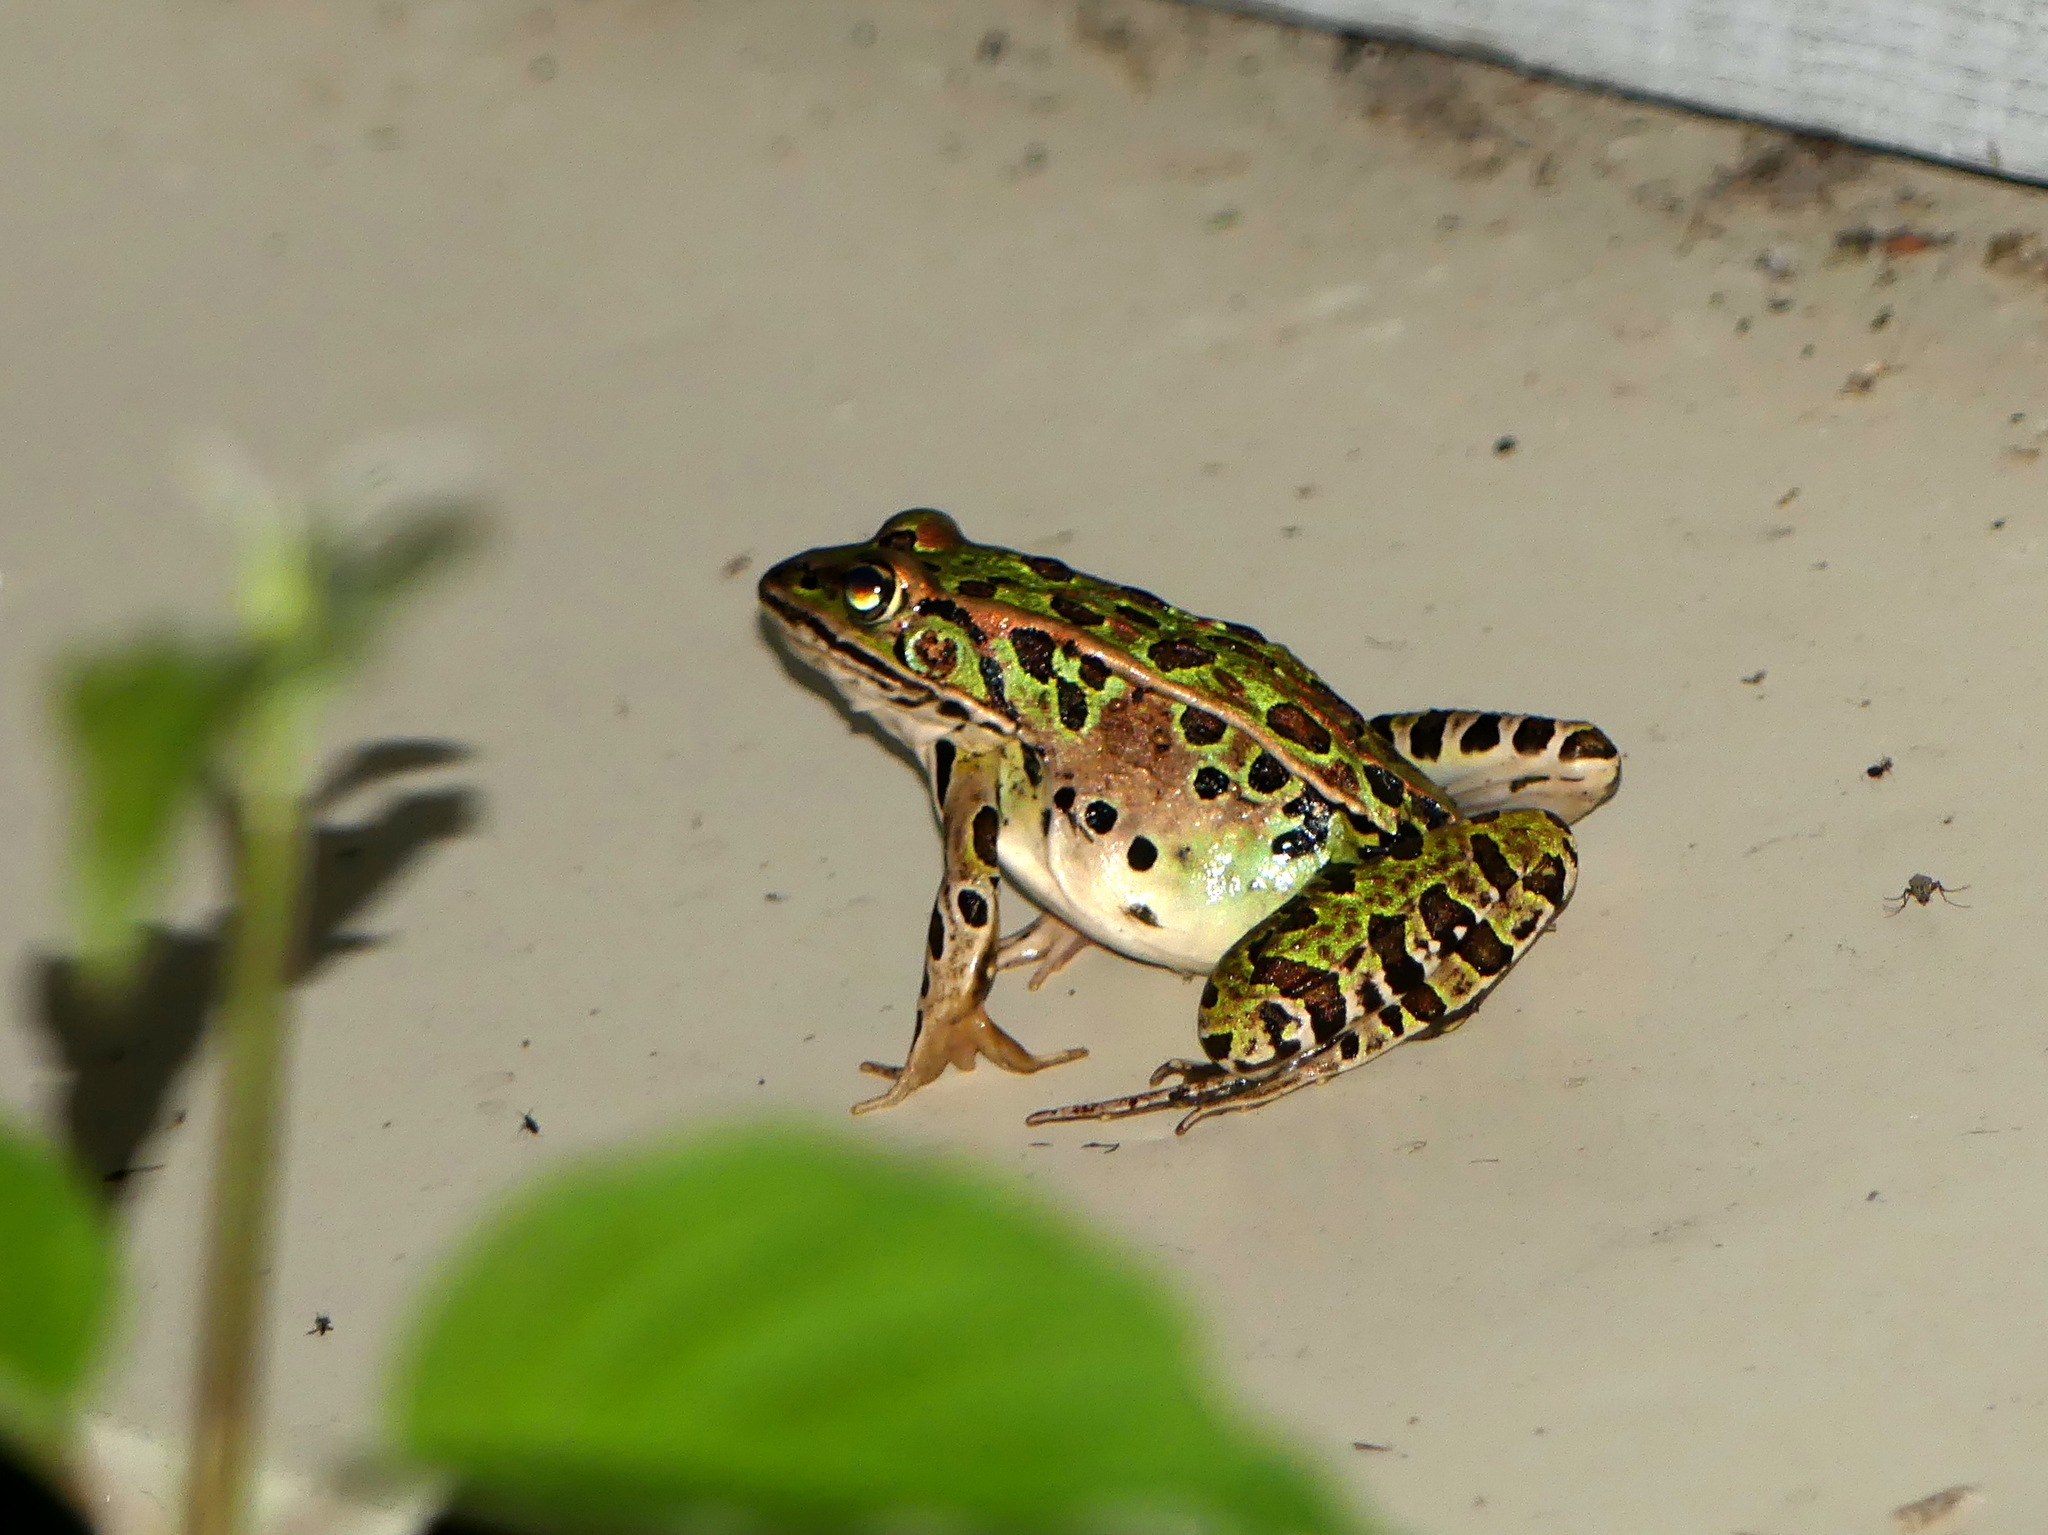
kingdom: Animalia
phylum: Chordata
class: Amphibia
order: Anura
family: Ranidae
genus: Lithobates
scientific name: Lithobates pipiens
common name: Northern leopard frog
